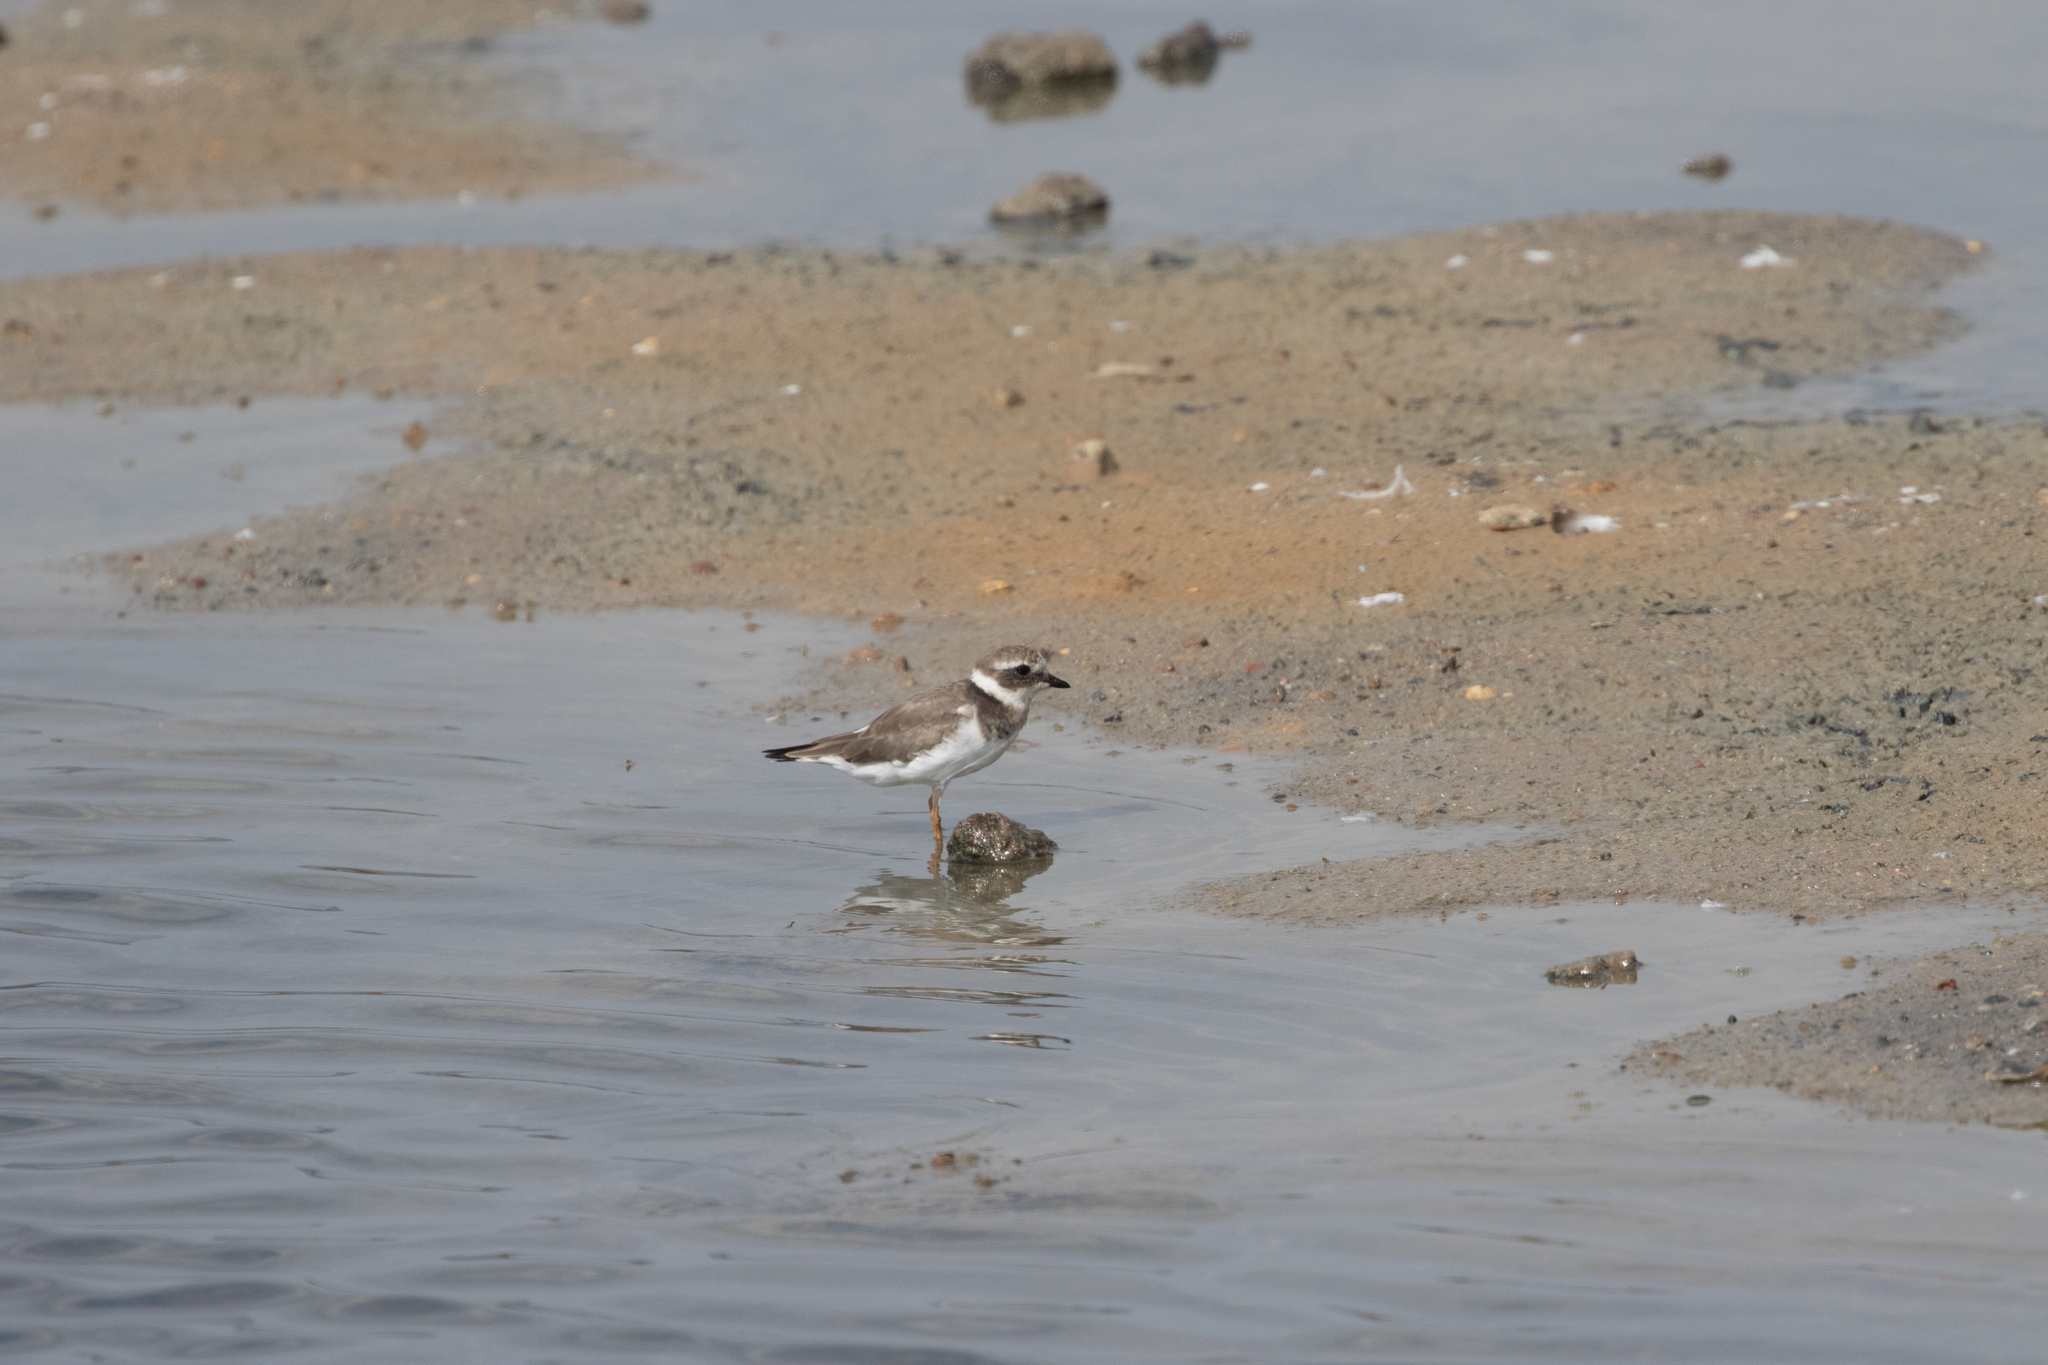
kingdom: Animalia
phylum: Chordata
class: Aves
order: Charadriiformes
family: Charadriidae
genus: Charadrius
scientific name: Charadrius hiaticula
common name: Common ringed plover
